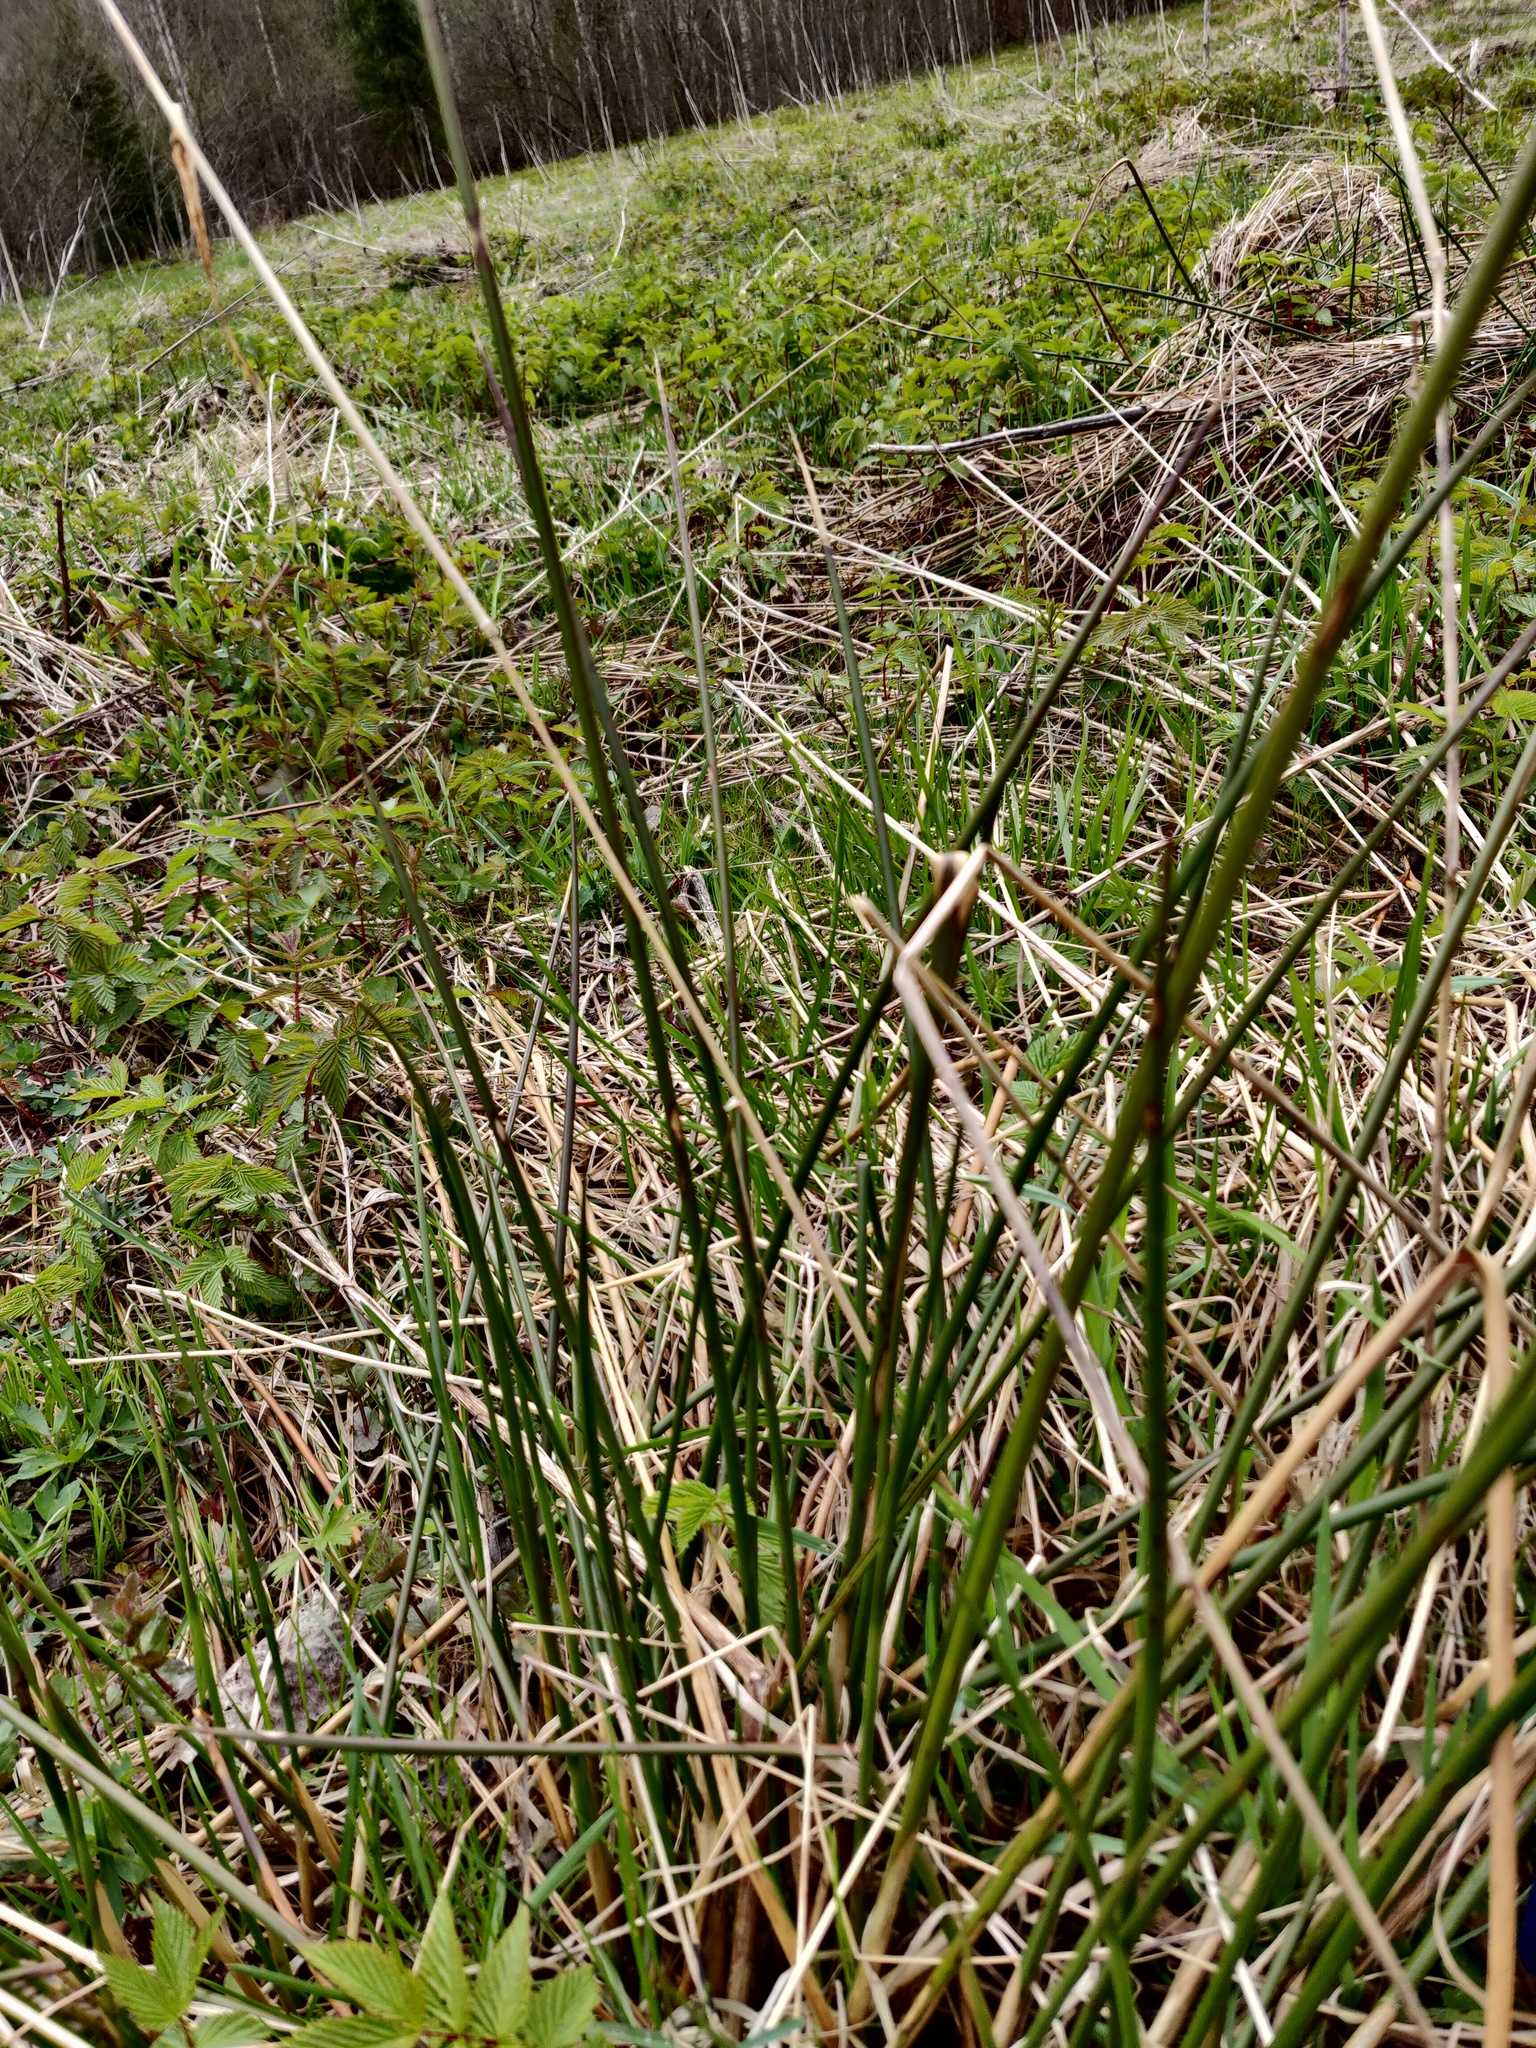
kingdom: Plantae
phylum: Tracheophyta
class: Liliopsida
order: Poales
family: Juncaceae
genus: Juncus
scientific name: Juncus effusus
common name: Soft rush
